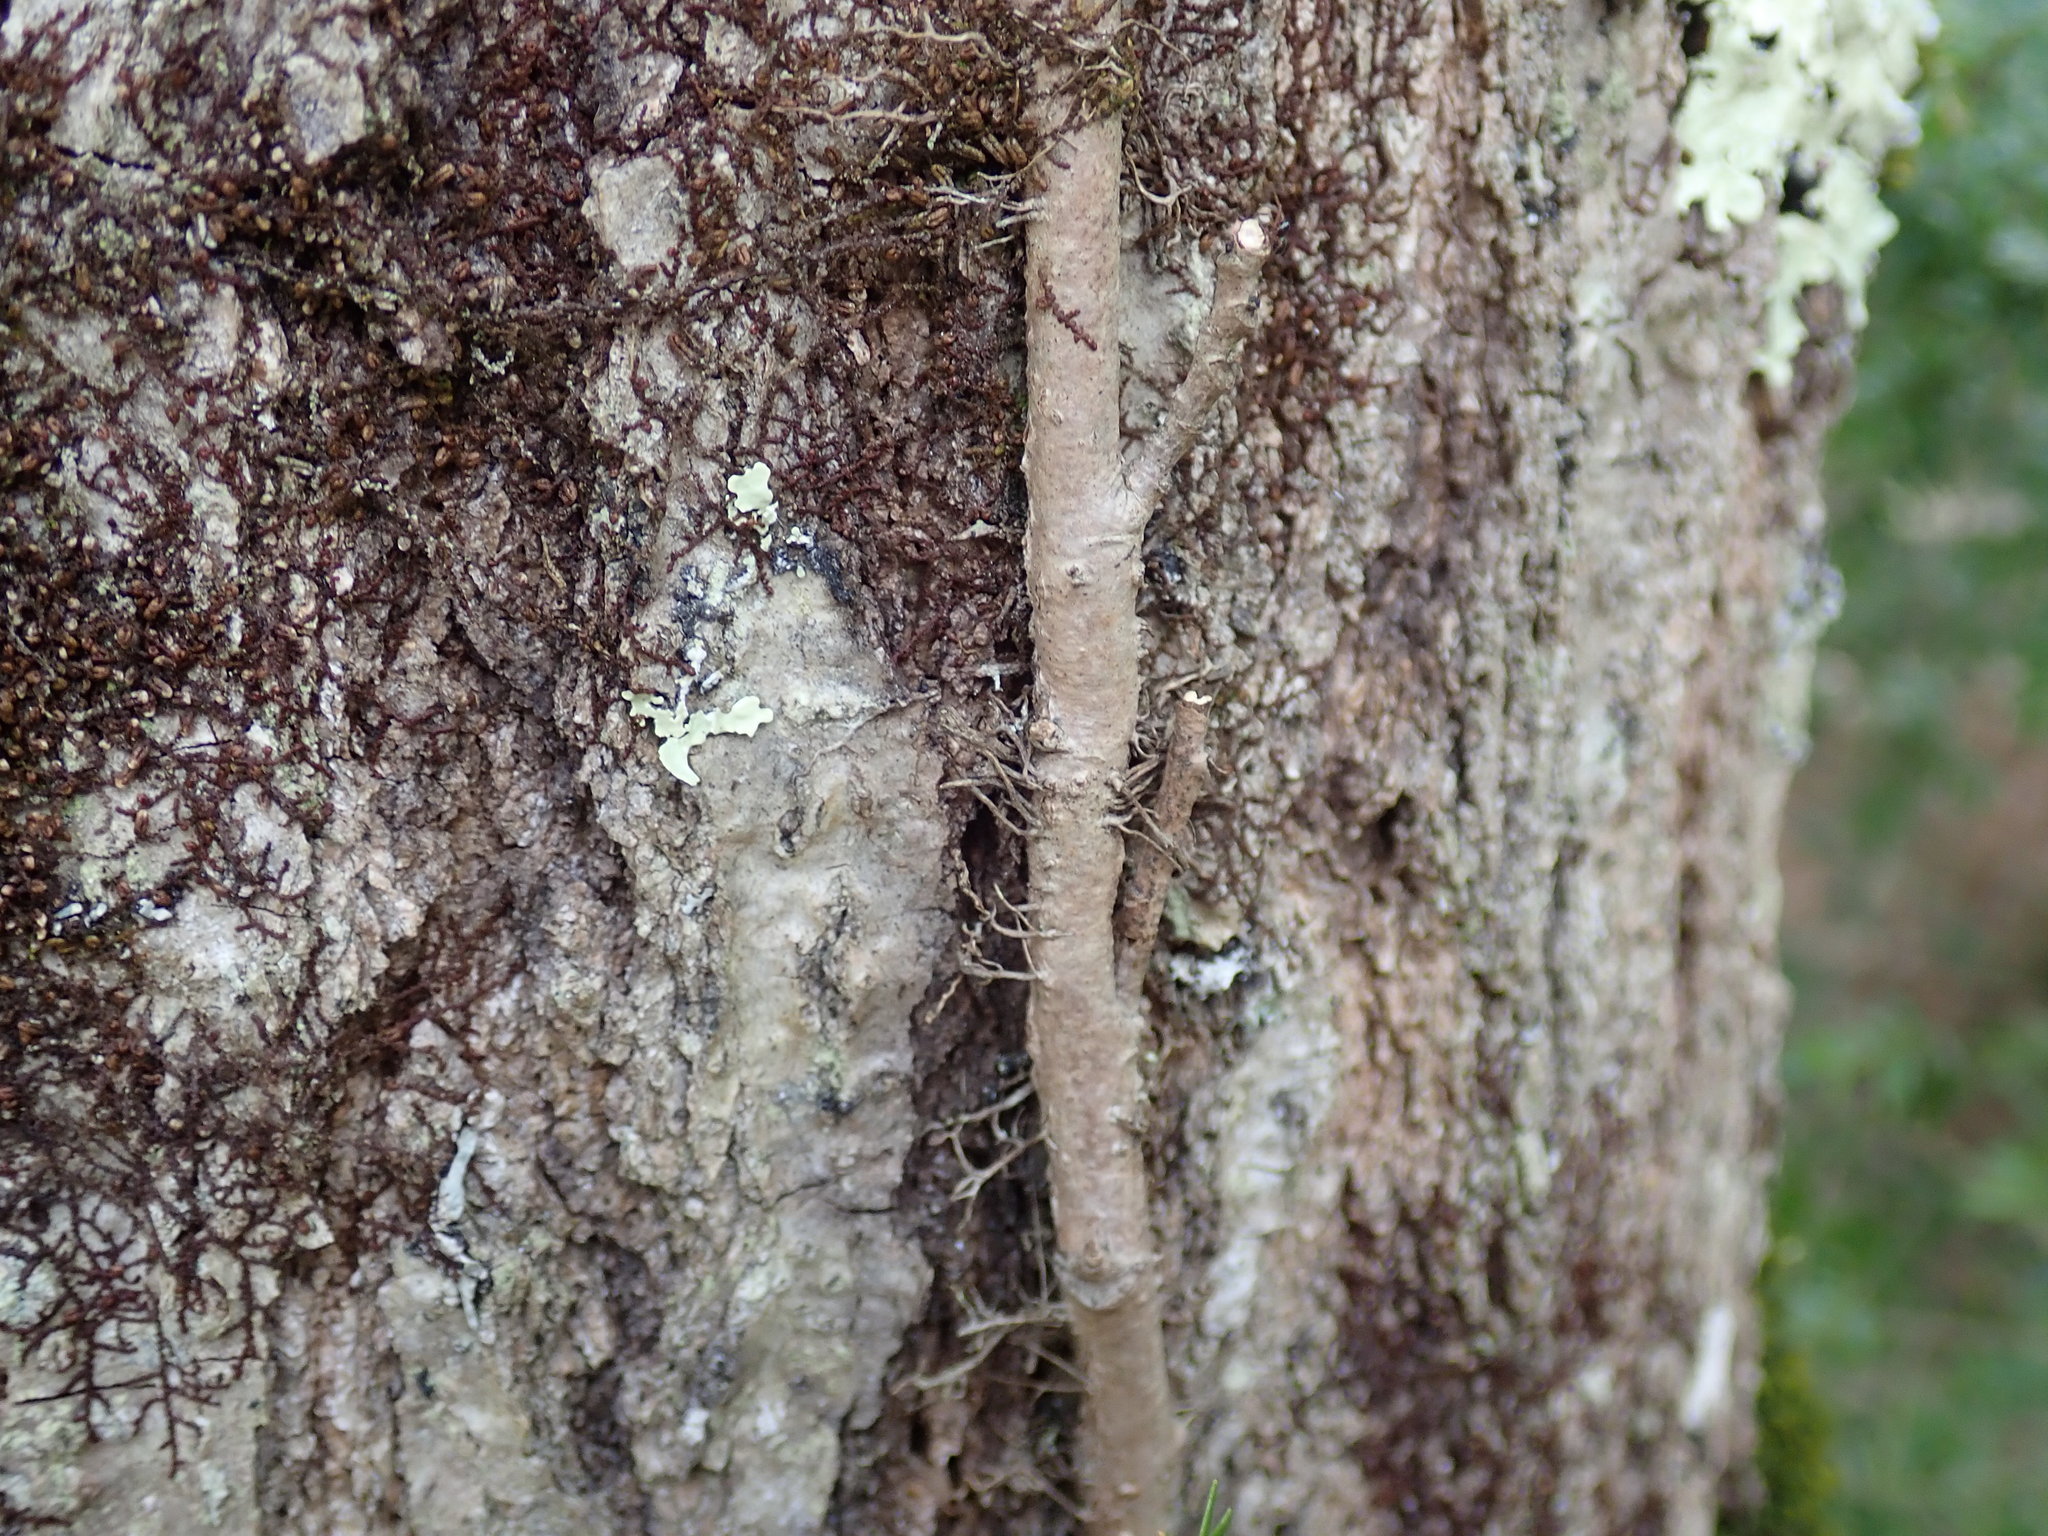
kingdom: Plantae
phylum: Tracheophyta
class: Magnoliopsida
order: Sapindales
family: Anacardiaceae
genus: Toxicodendron
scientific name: Toxicodendron radicans
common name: Poison ivy
